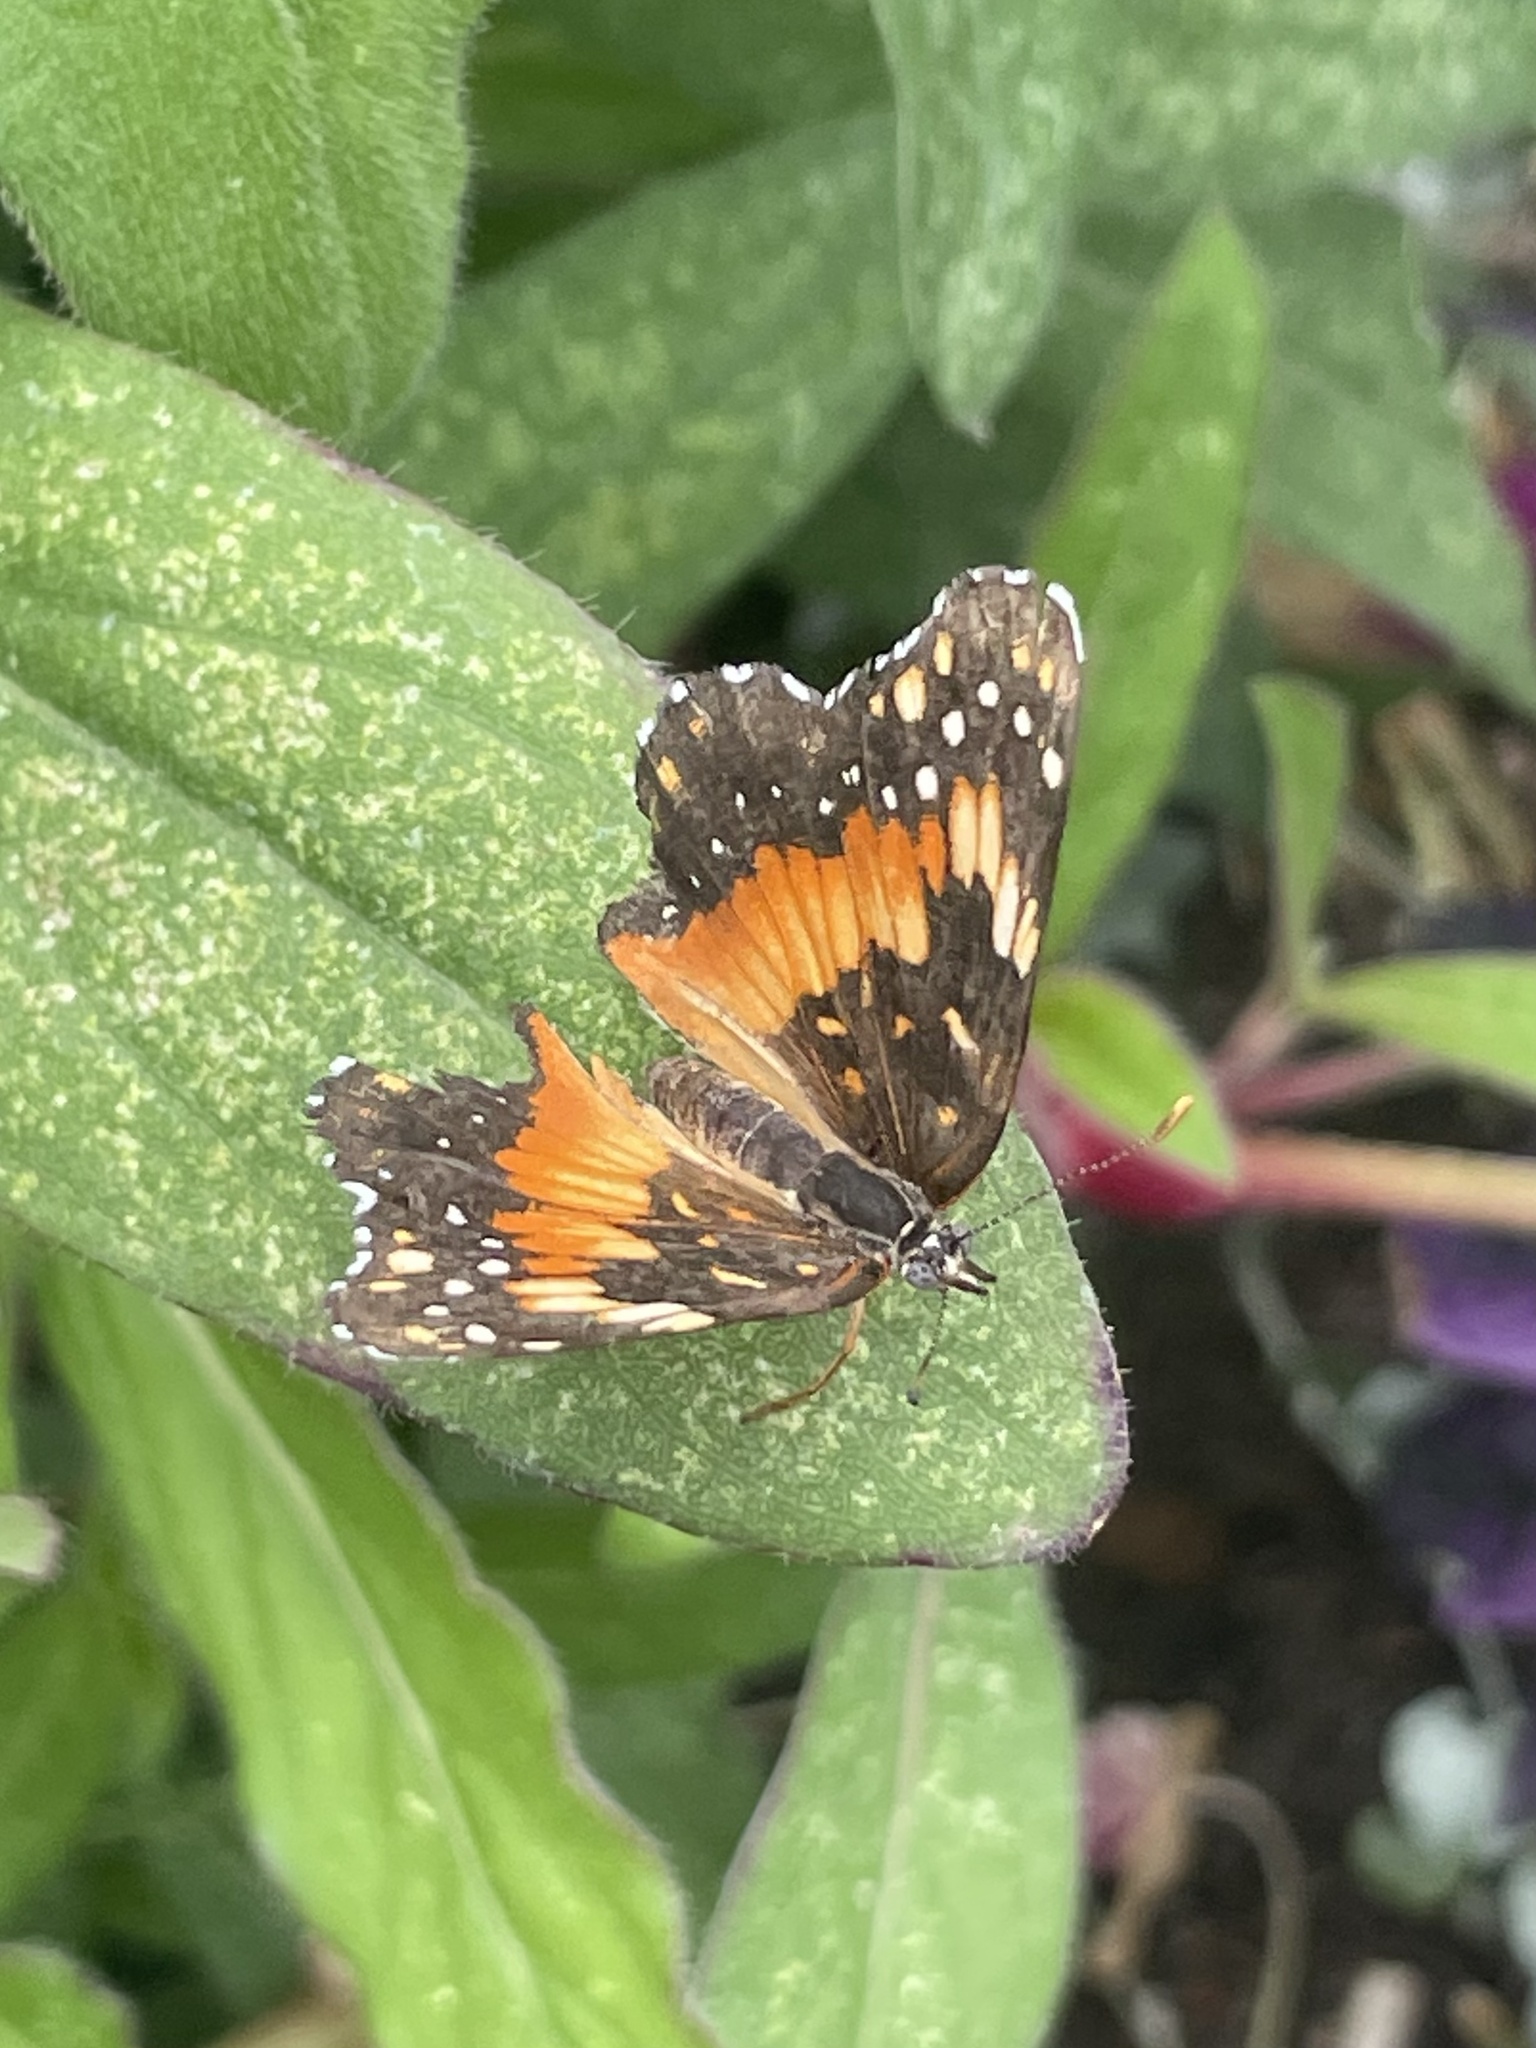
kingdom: Animalia
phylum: Arthropoda
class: Insecta
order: Lepidoptera
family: Nymphalidae
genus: Chlosyne
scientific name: Chlosyne lacinia
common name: Bordered patch
